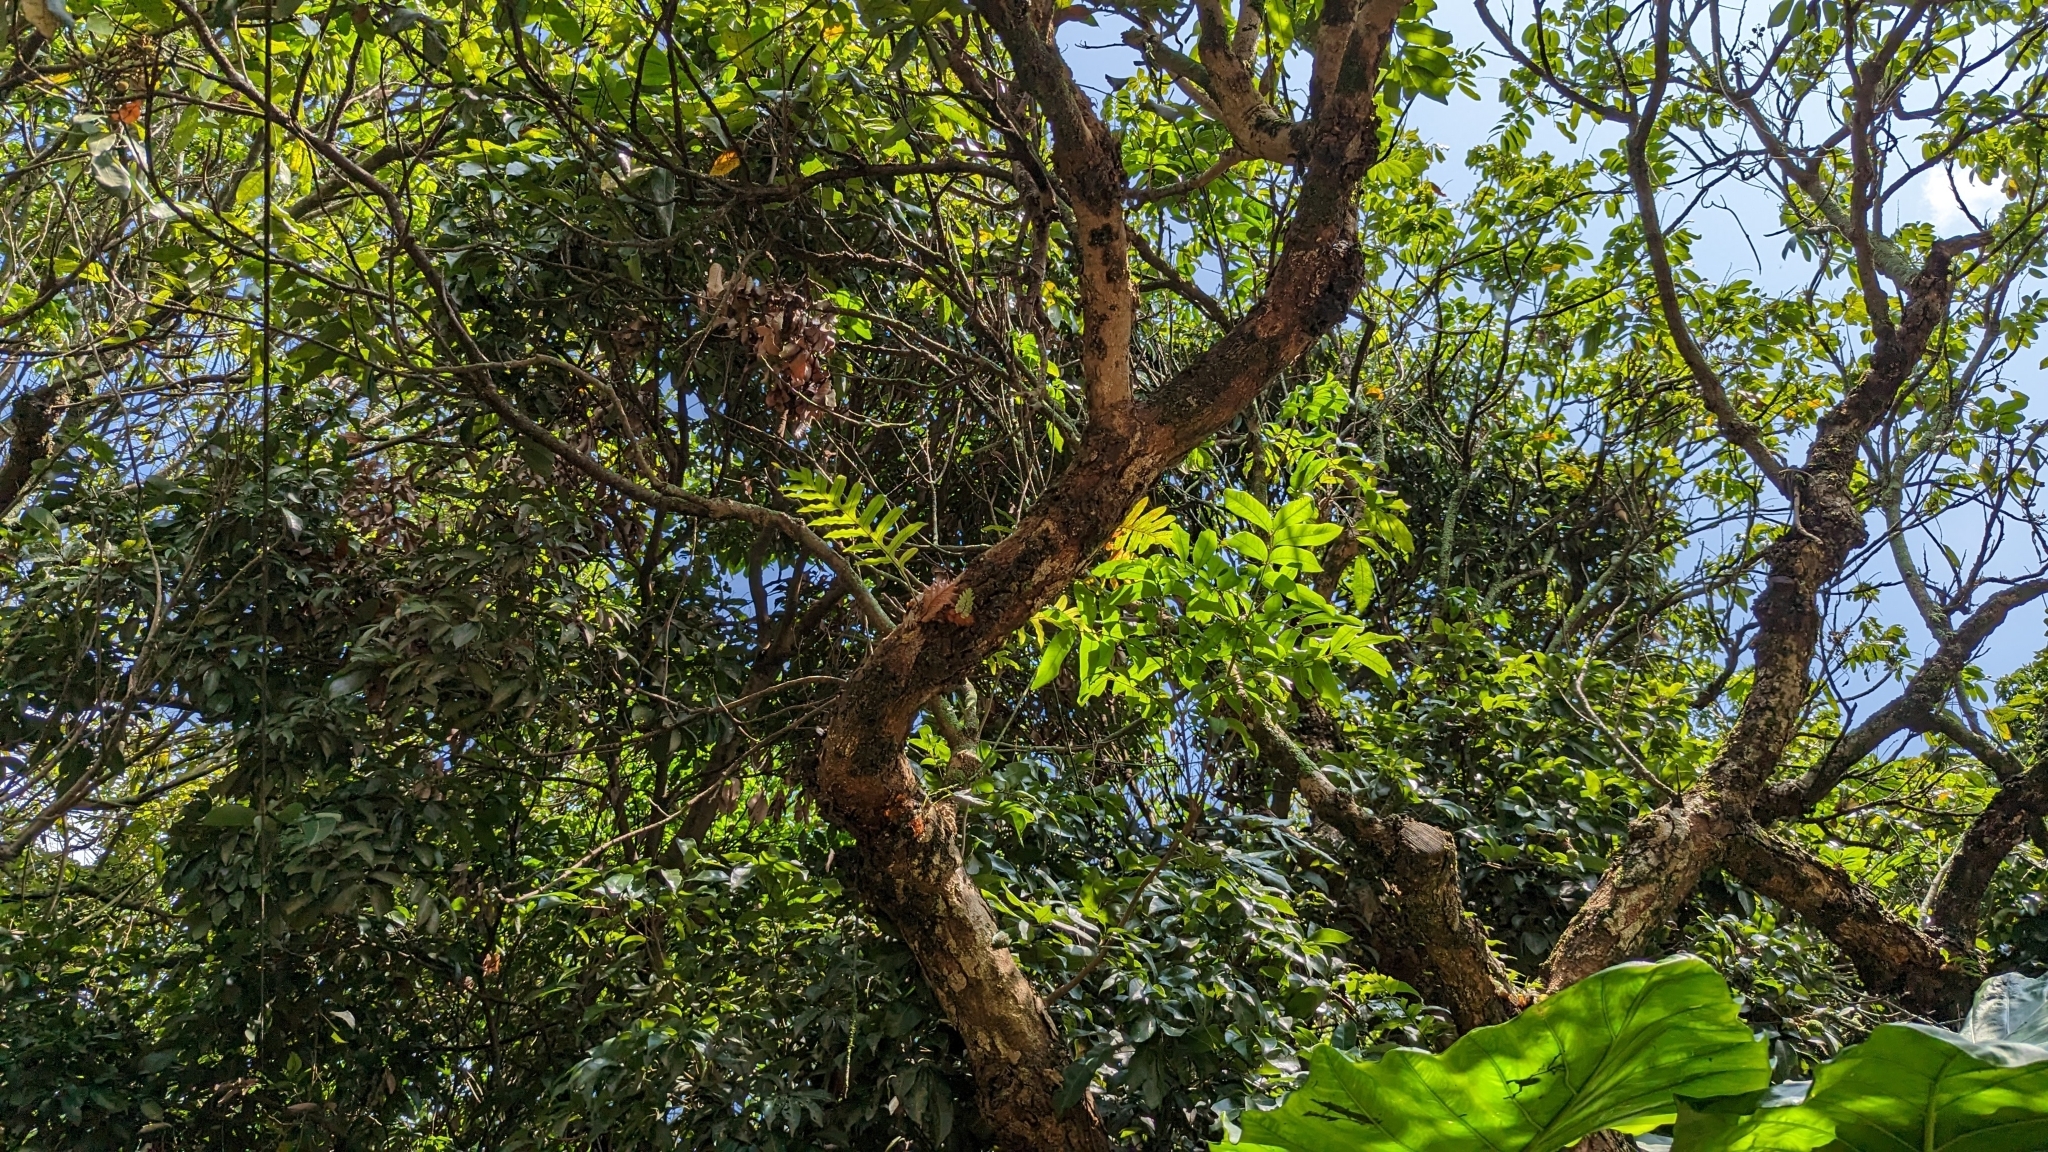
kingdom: Plantae
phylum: Tracheophyta
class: Polypodiopsida
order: Polypodiales
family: Polypodiaceae
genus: Drynaria
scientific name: Drynaria roosii
